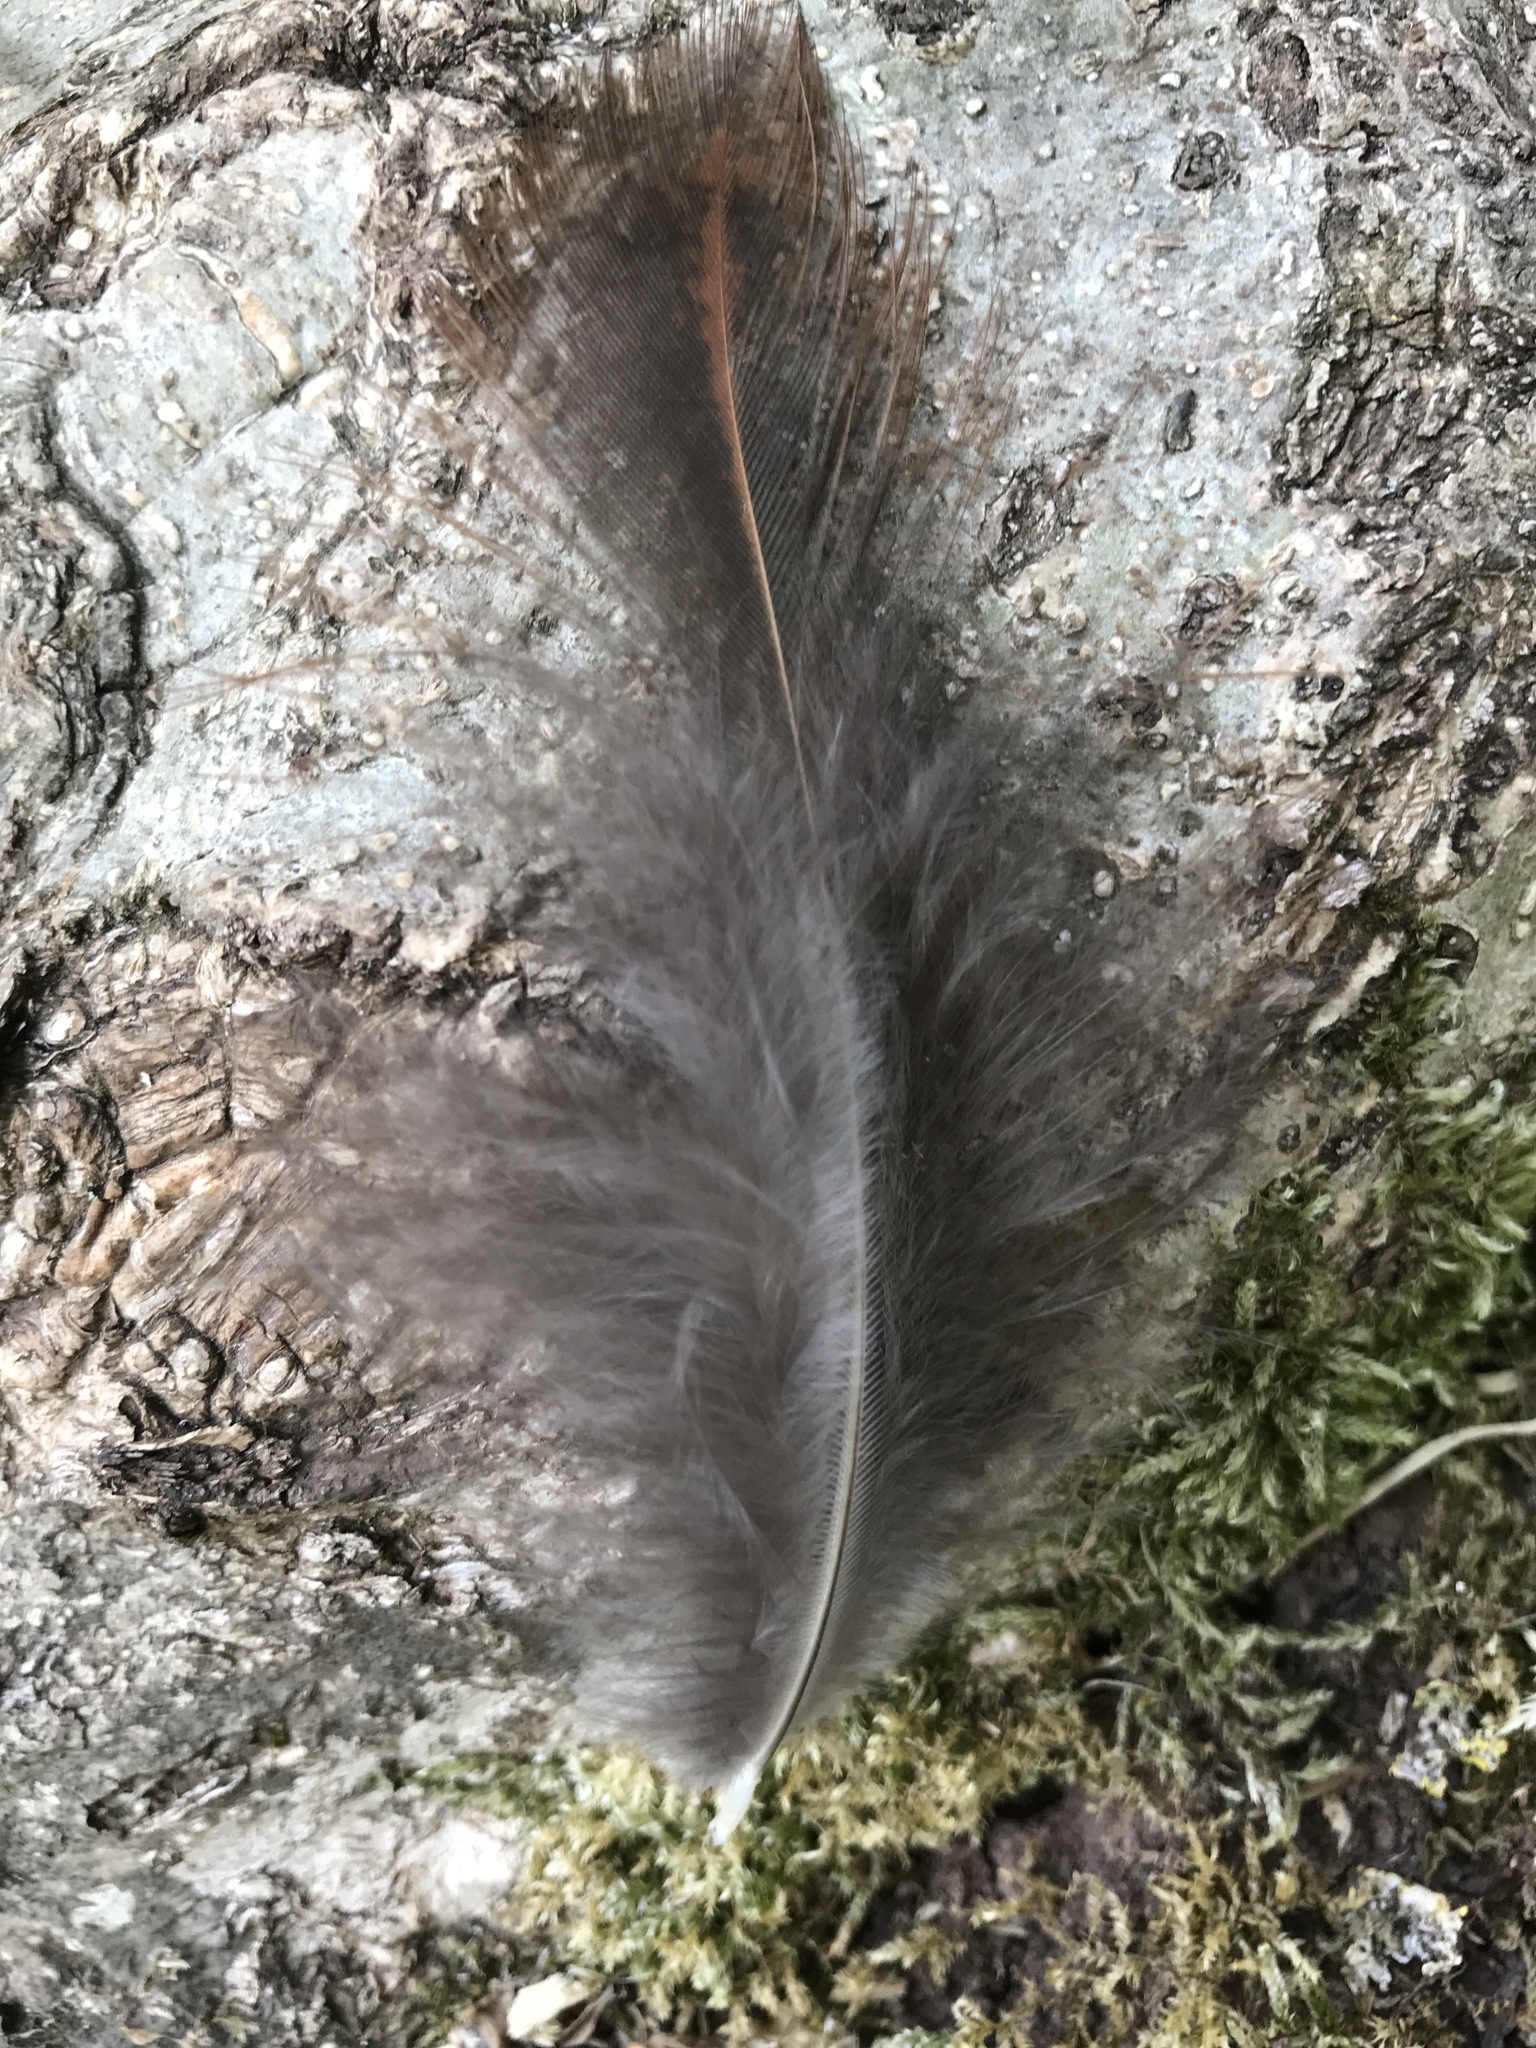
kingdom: Animalia
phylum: Chordata
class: Aves
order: Galliformes
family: Phasianidae
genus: Phasianus
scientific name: Phasianus colchicus
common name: Common pheasant
